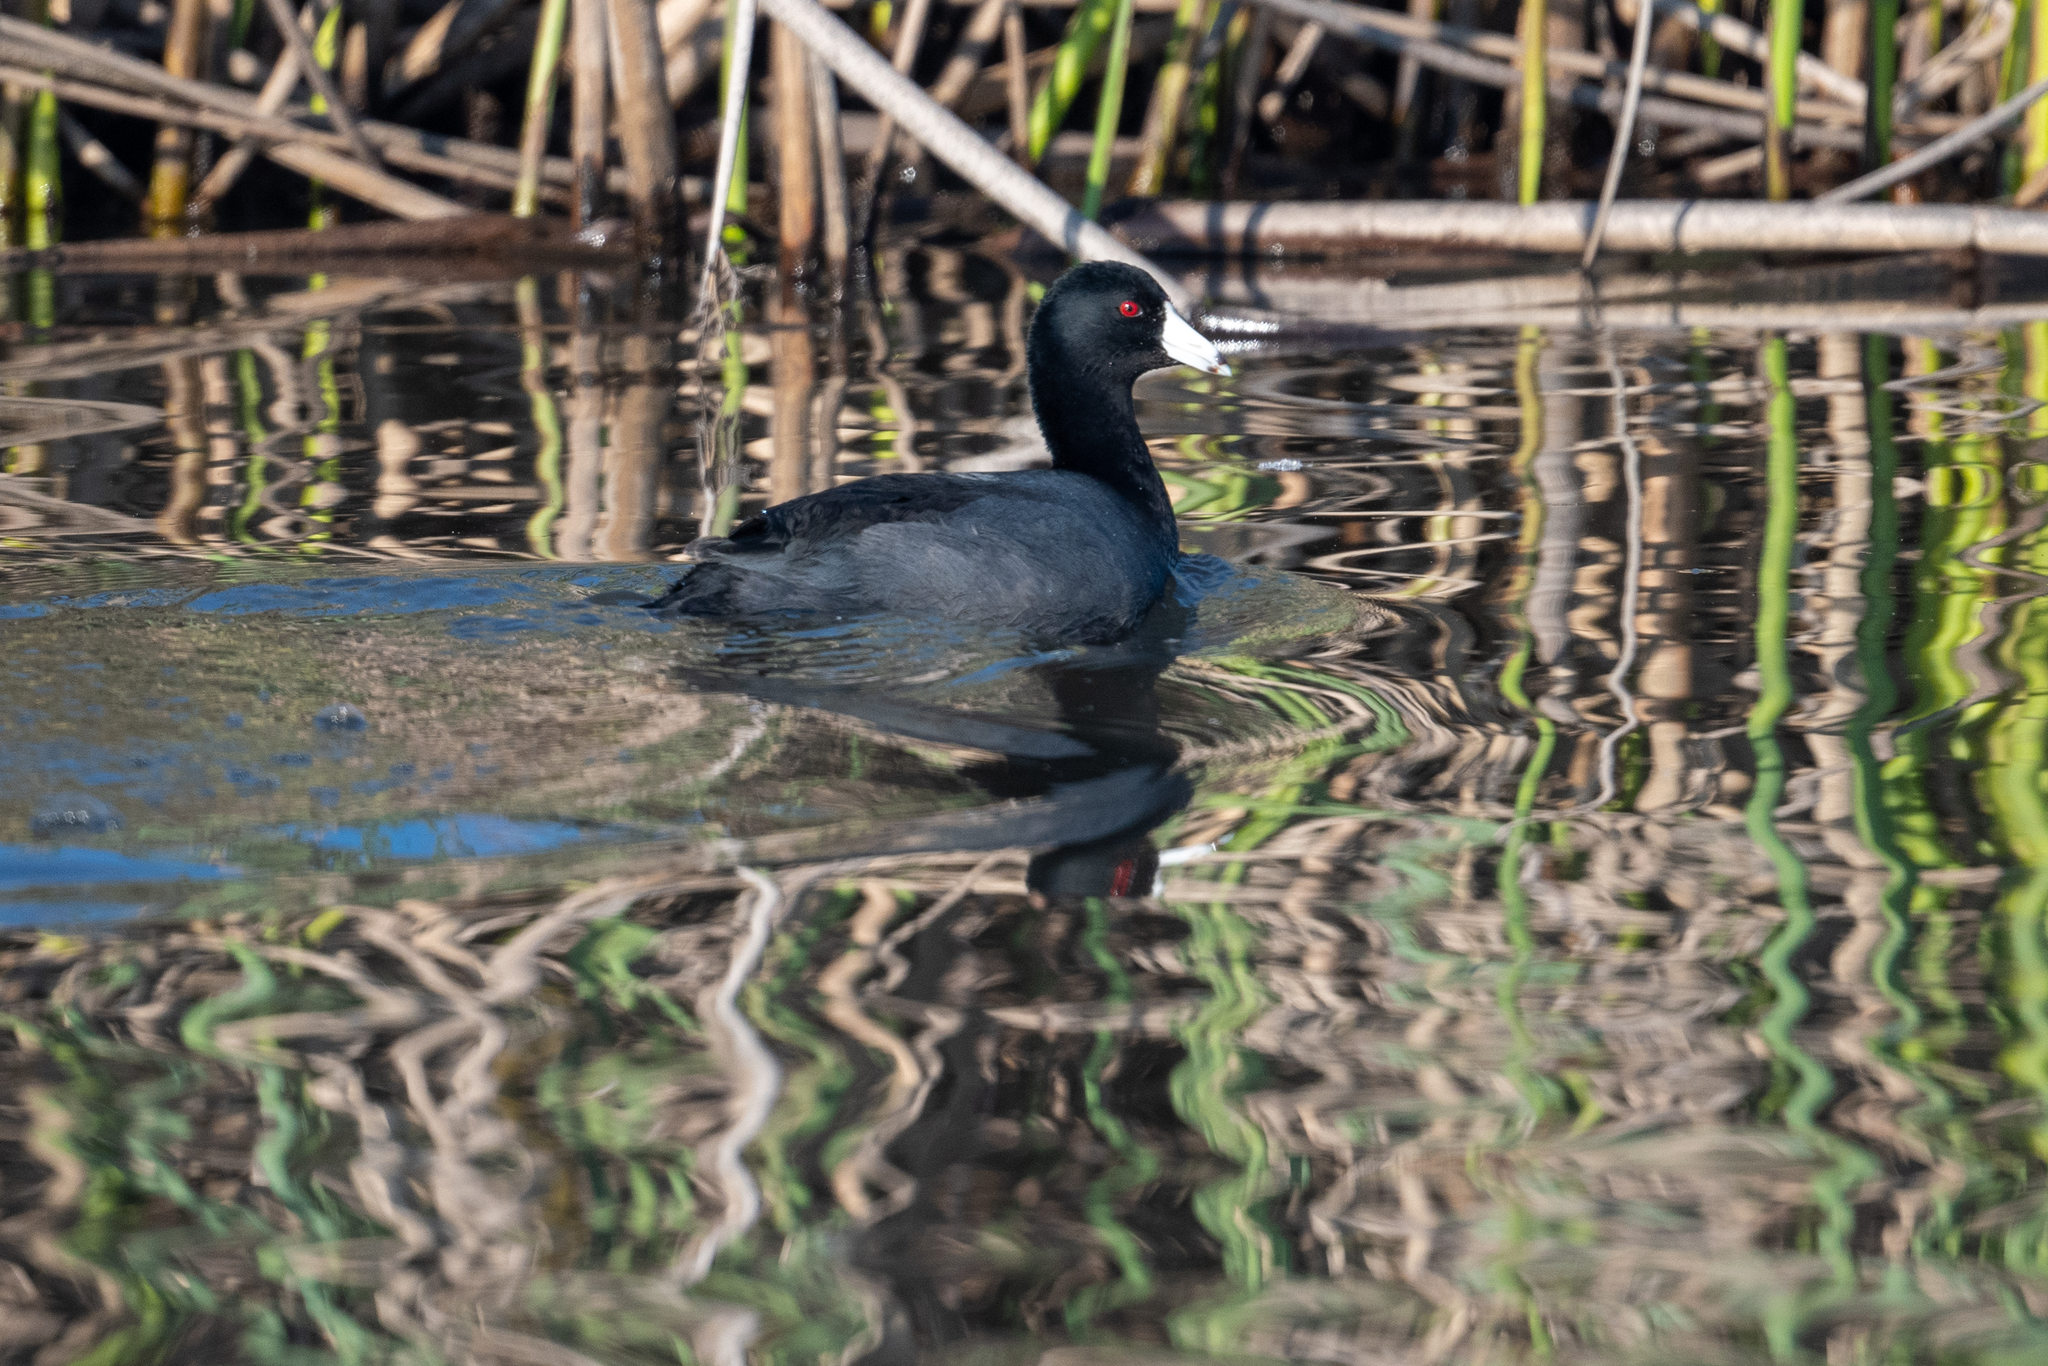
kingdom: Animalia
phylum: Chordata
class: Aves
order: Gruiformes
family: Rallidae
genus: Fulica
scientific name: Fulica americana
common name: American coot
